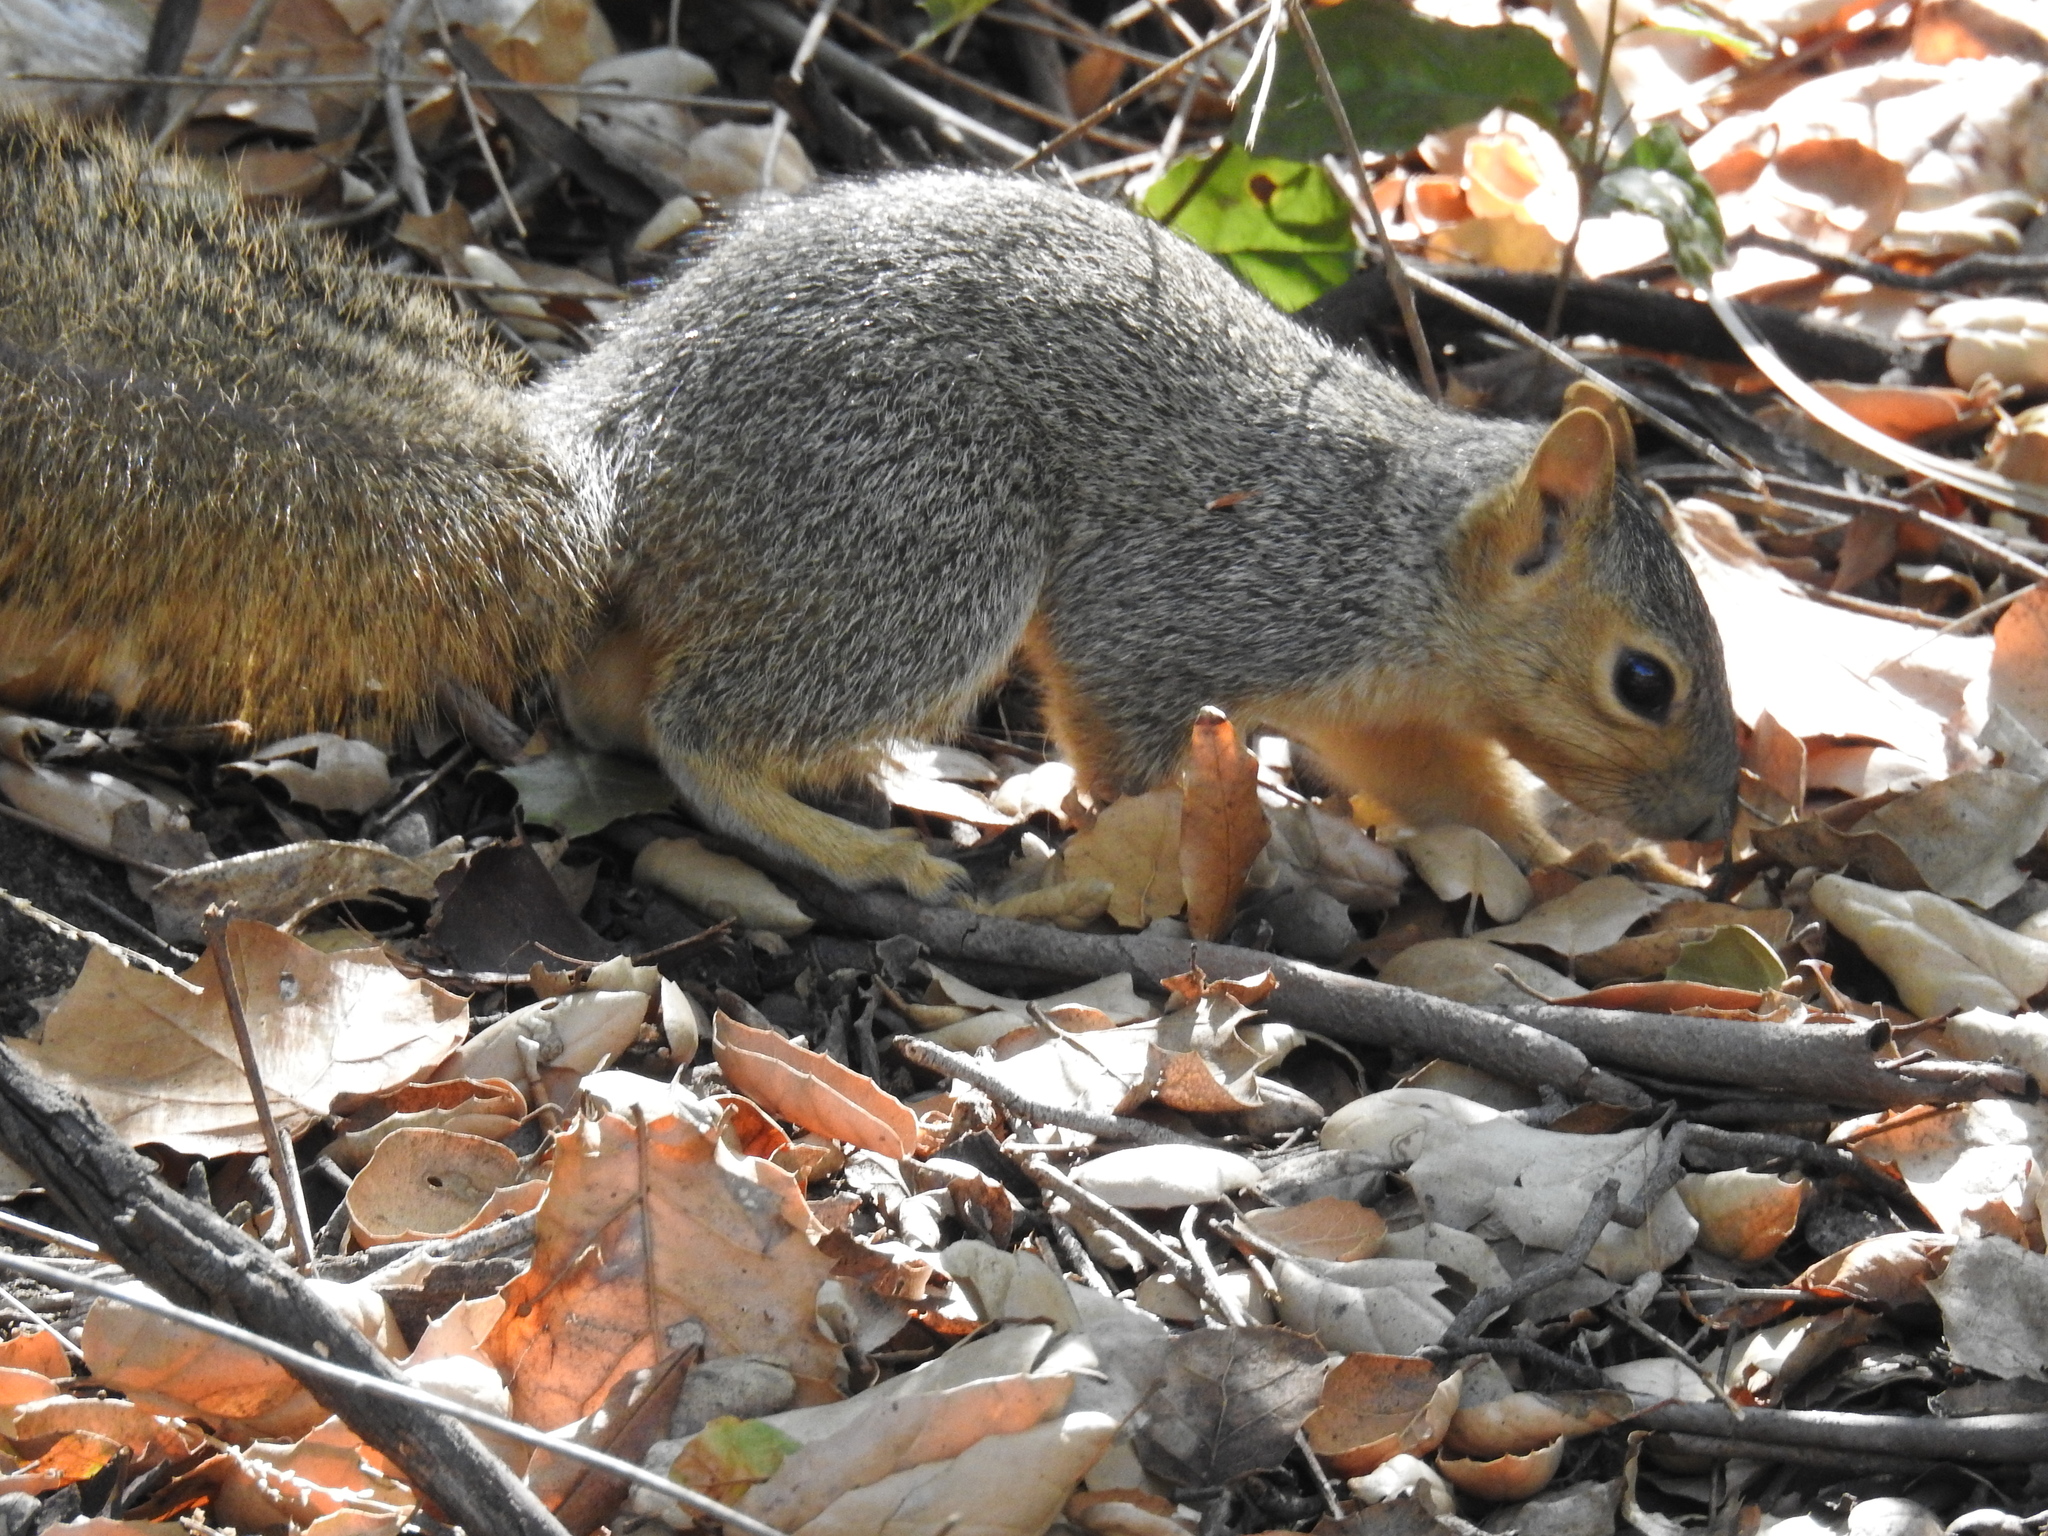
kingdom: Animalia
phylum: Chordata
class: Mammalia
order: Rodentia
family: Sciuridae
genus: Sciurus
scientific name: Sciurus niger
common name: Fox squirrel
